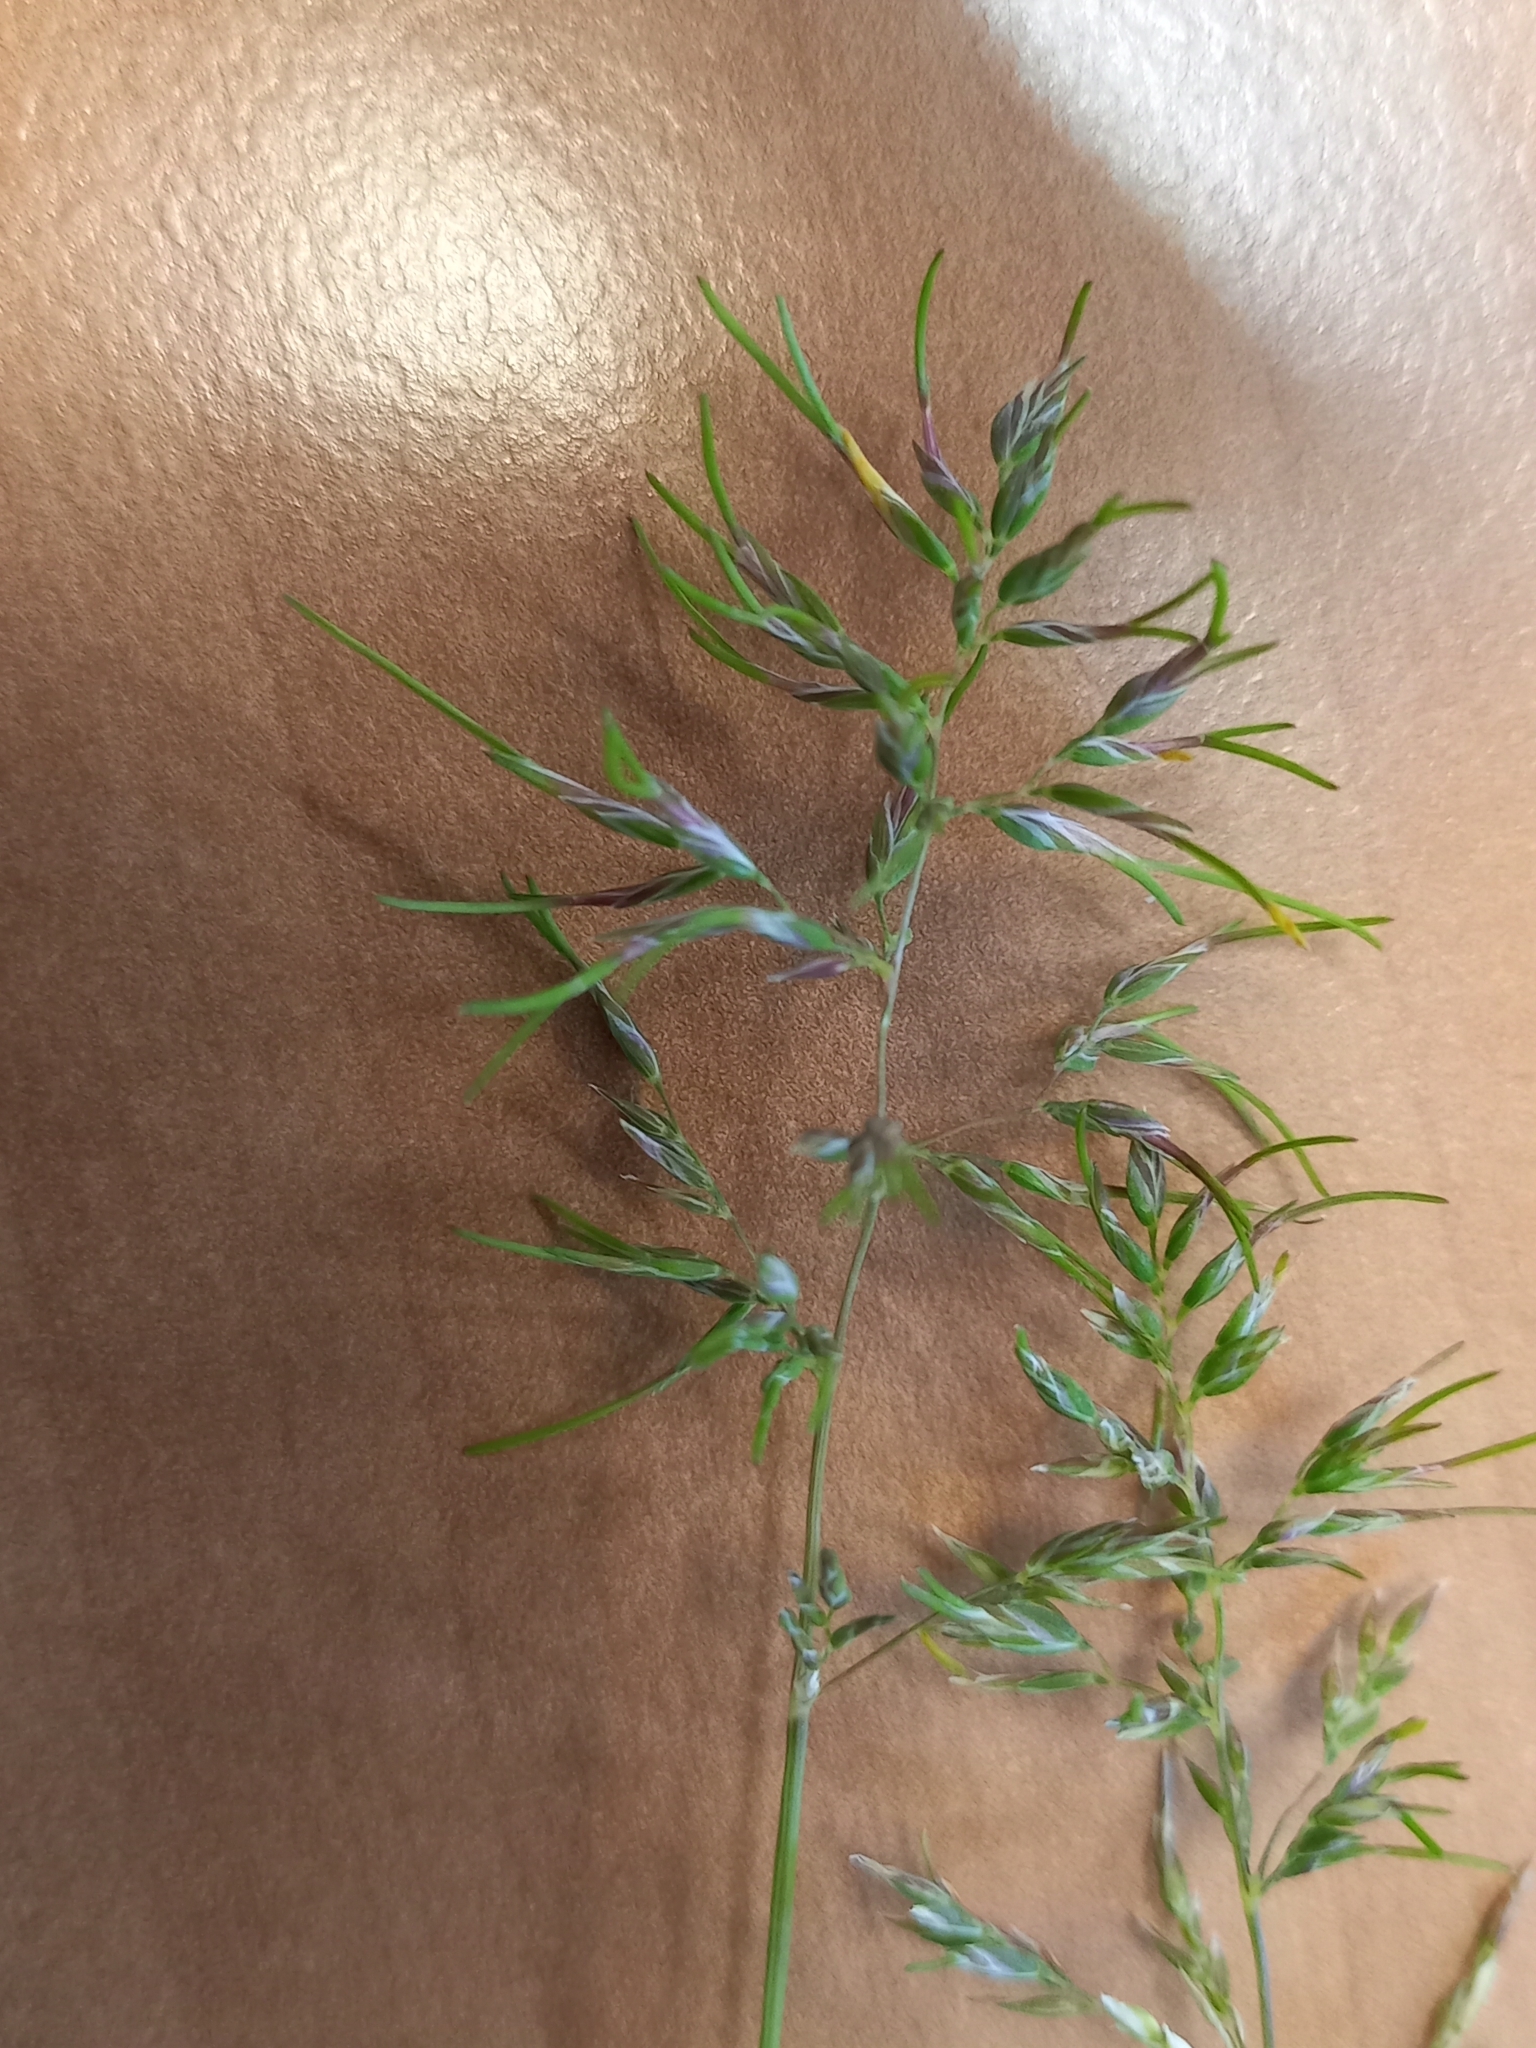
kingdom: Plantae
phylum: Tracheophyta
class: Liliopsida
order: Poales
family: Poaceae
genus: Poa
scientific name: Poa bulbosa
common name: Bulbous bluegrass
